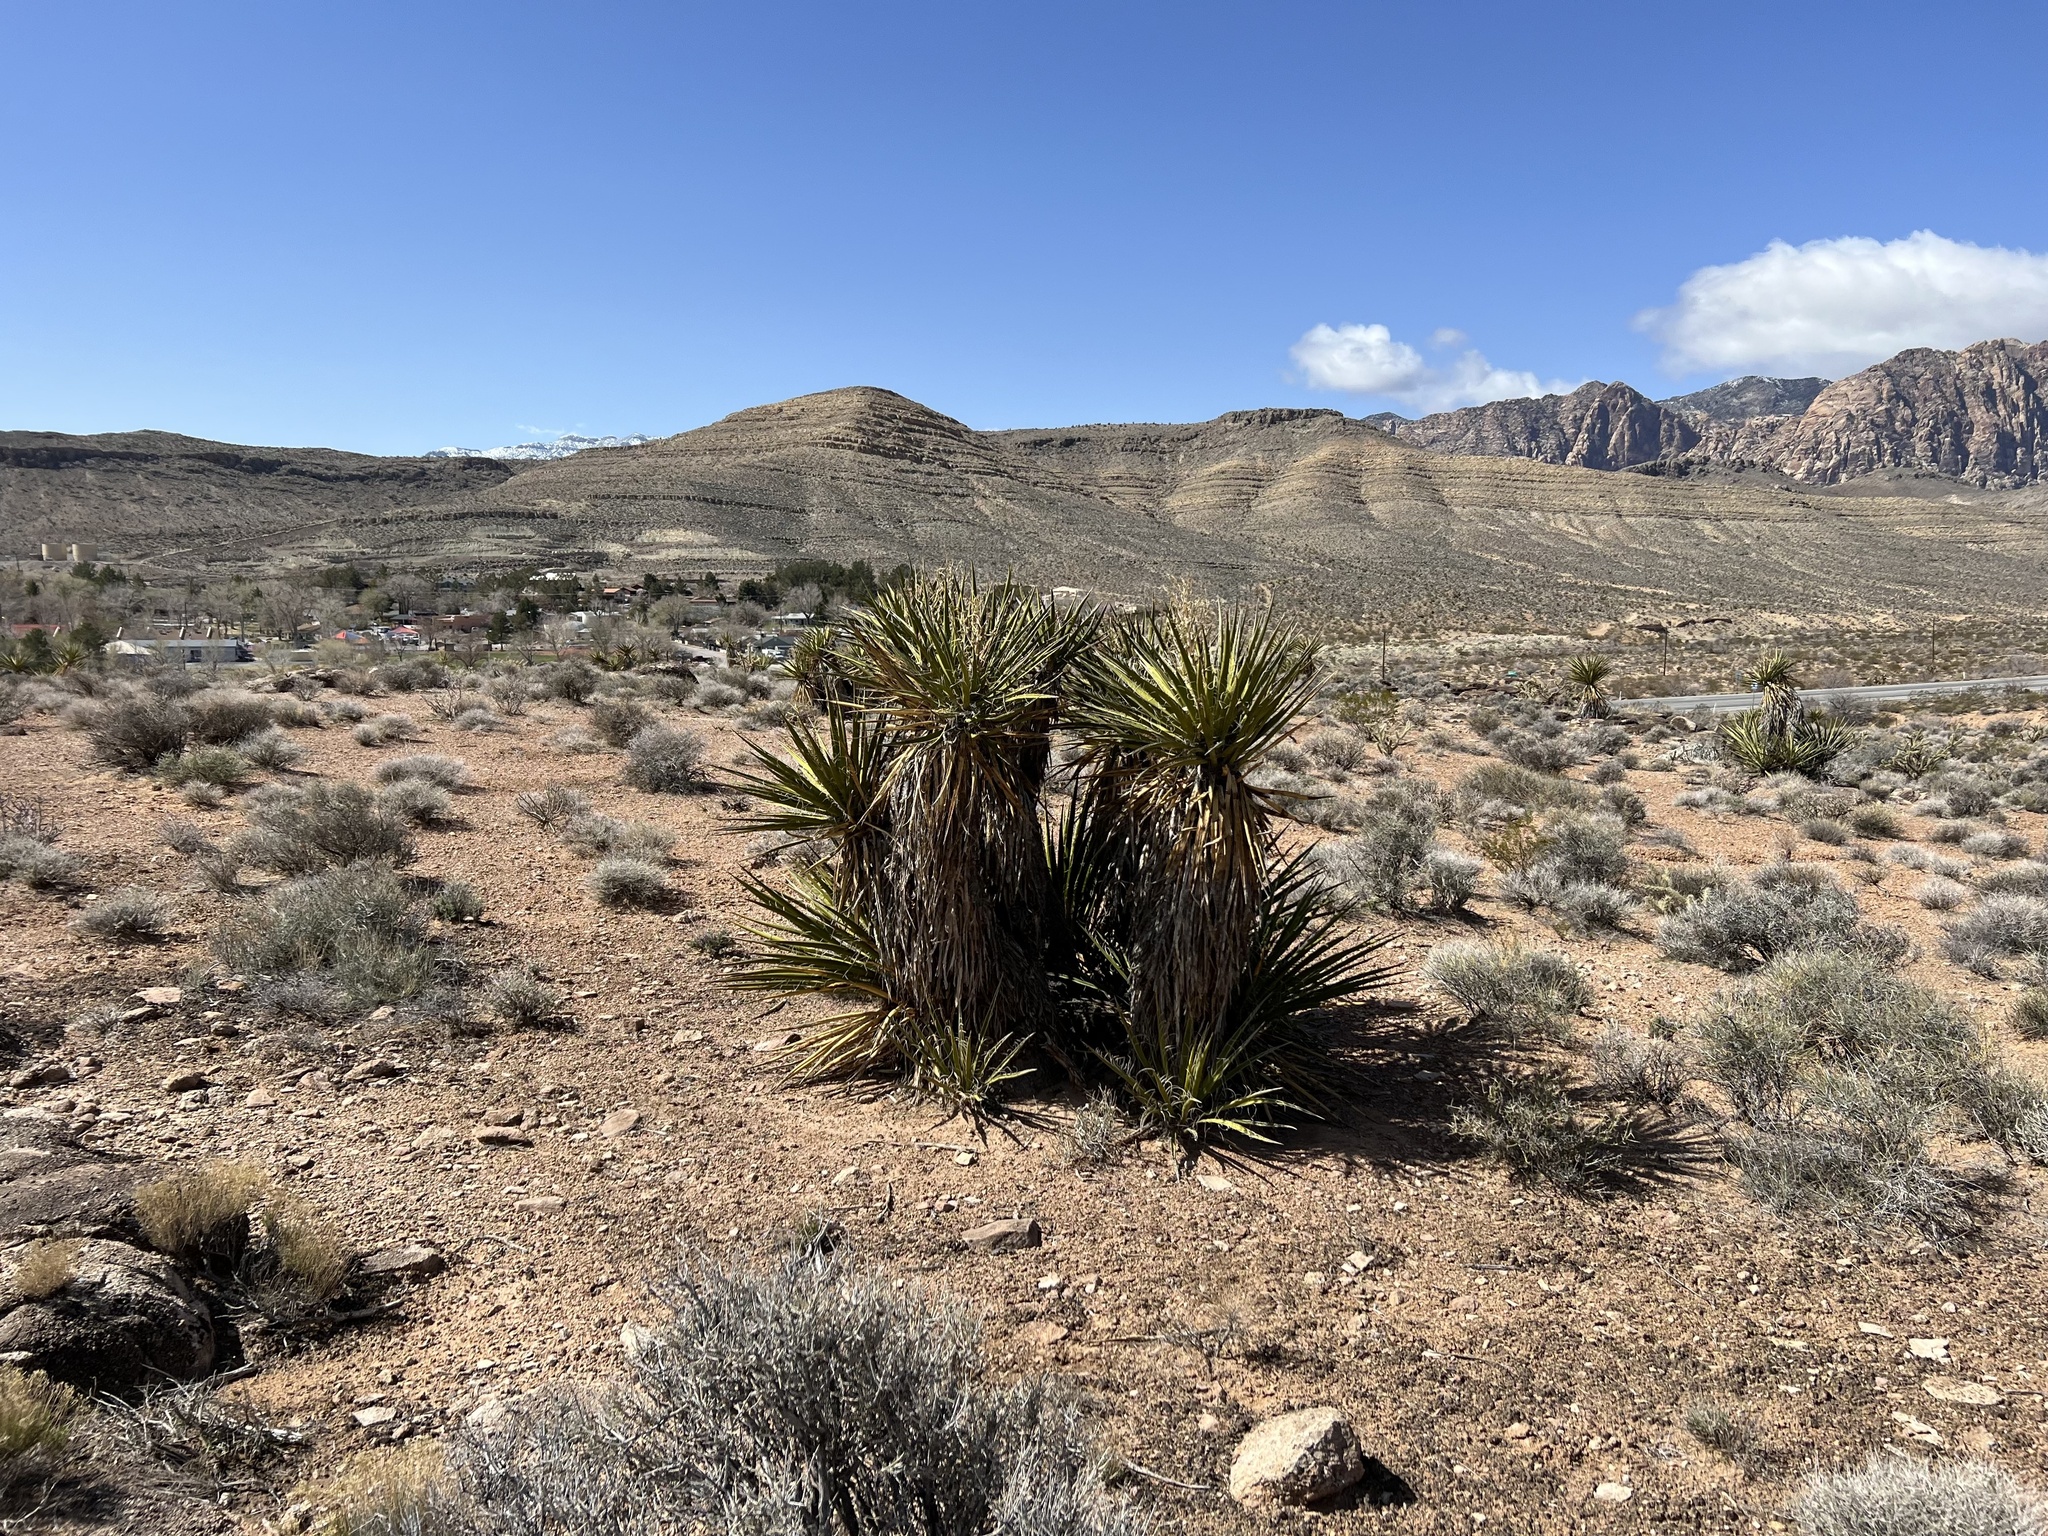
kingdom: Plantae
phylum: Tracheophyta
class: Liliopsida
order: Asparagales
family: Asparagaceae
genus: Yucca
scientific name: Yucca schidigera
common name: Mojave yucca
